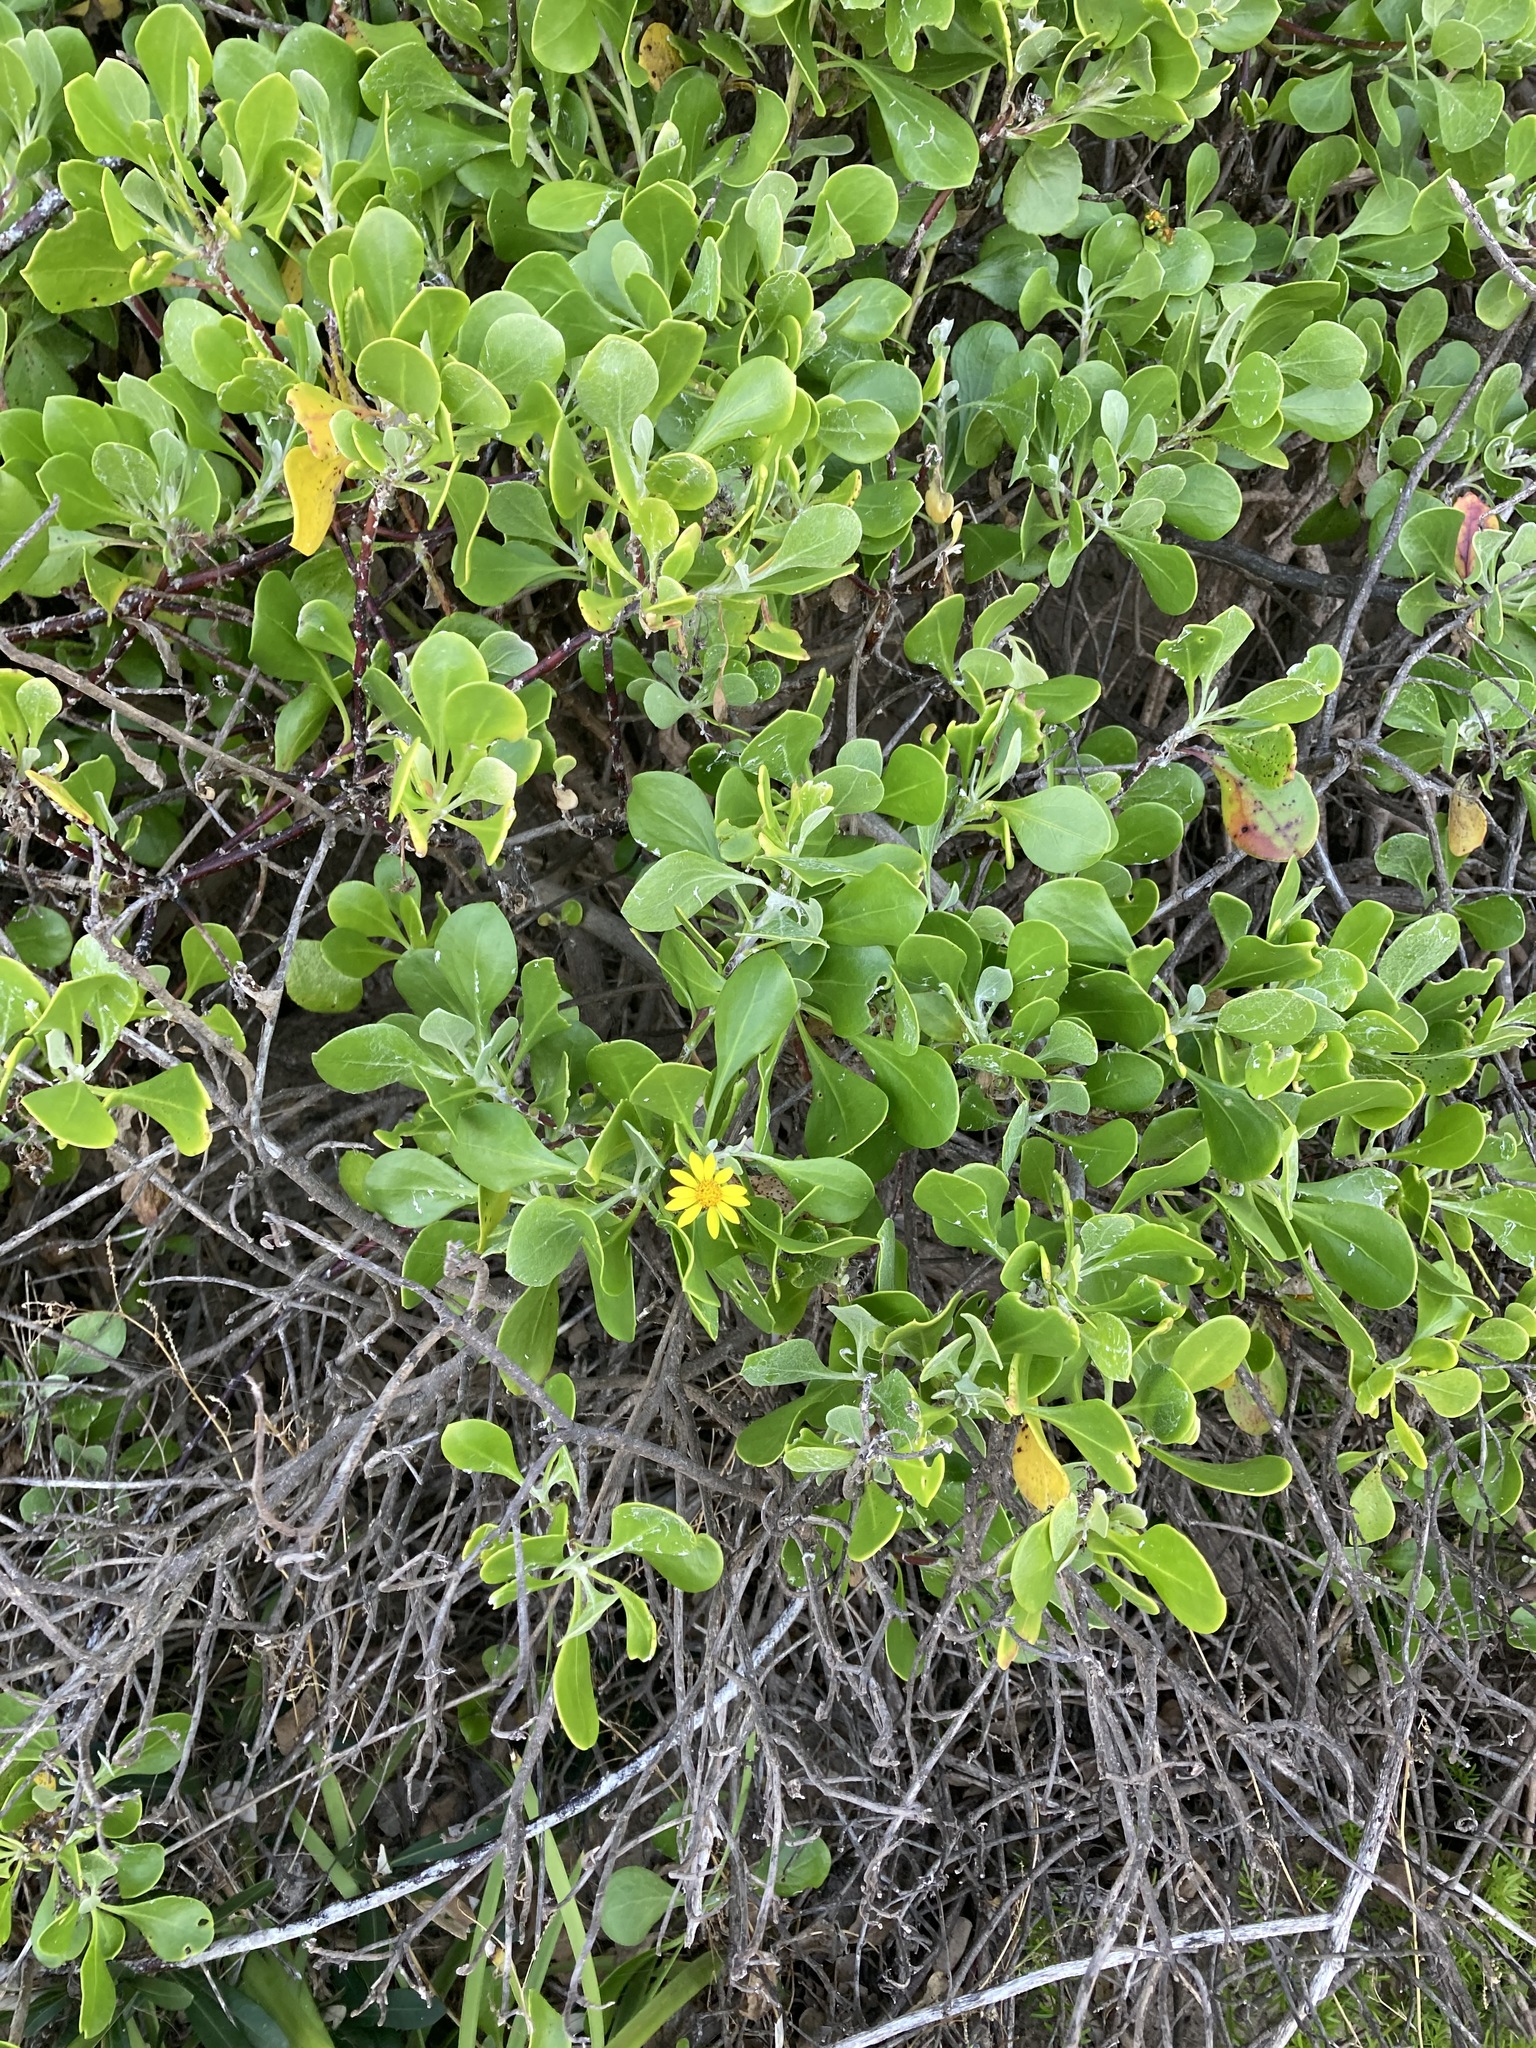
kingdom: Plantae
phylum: Tracheophyta
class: Magnoliopsida
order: Asterales
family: Asteraceae
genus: Osteospermum
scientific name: Osteospermum moniliferum
